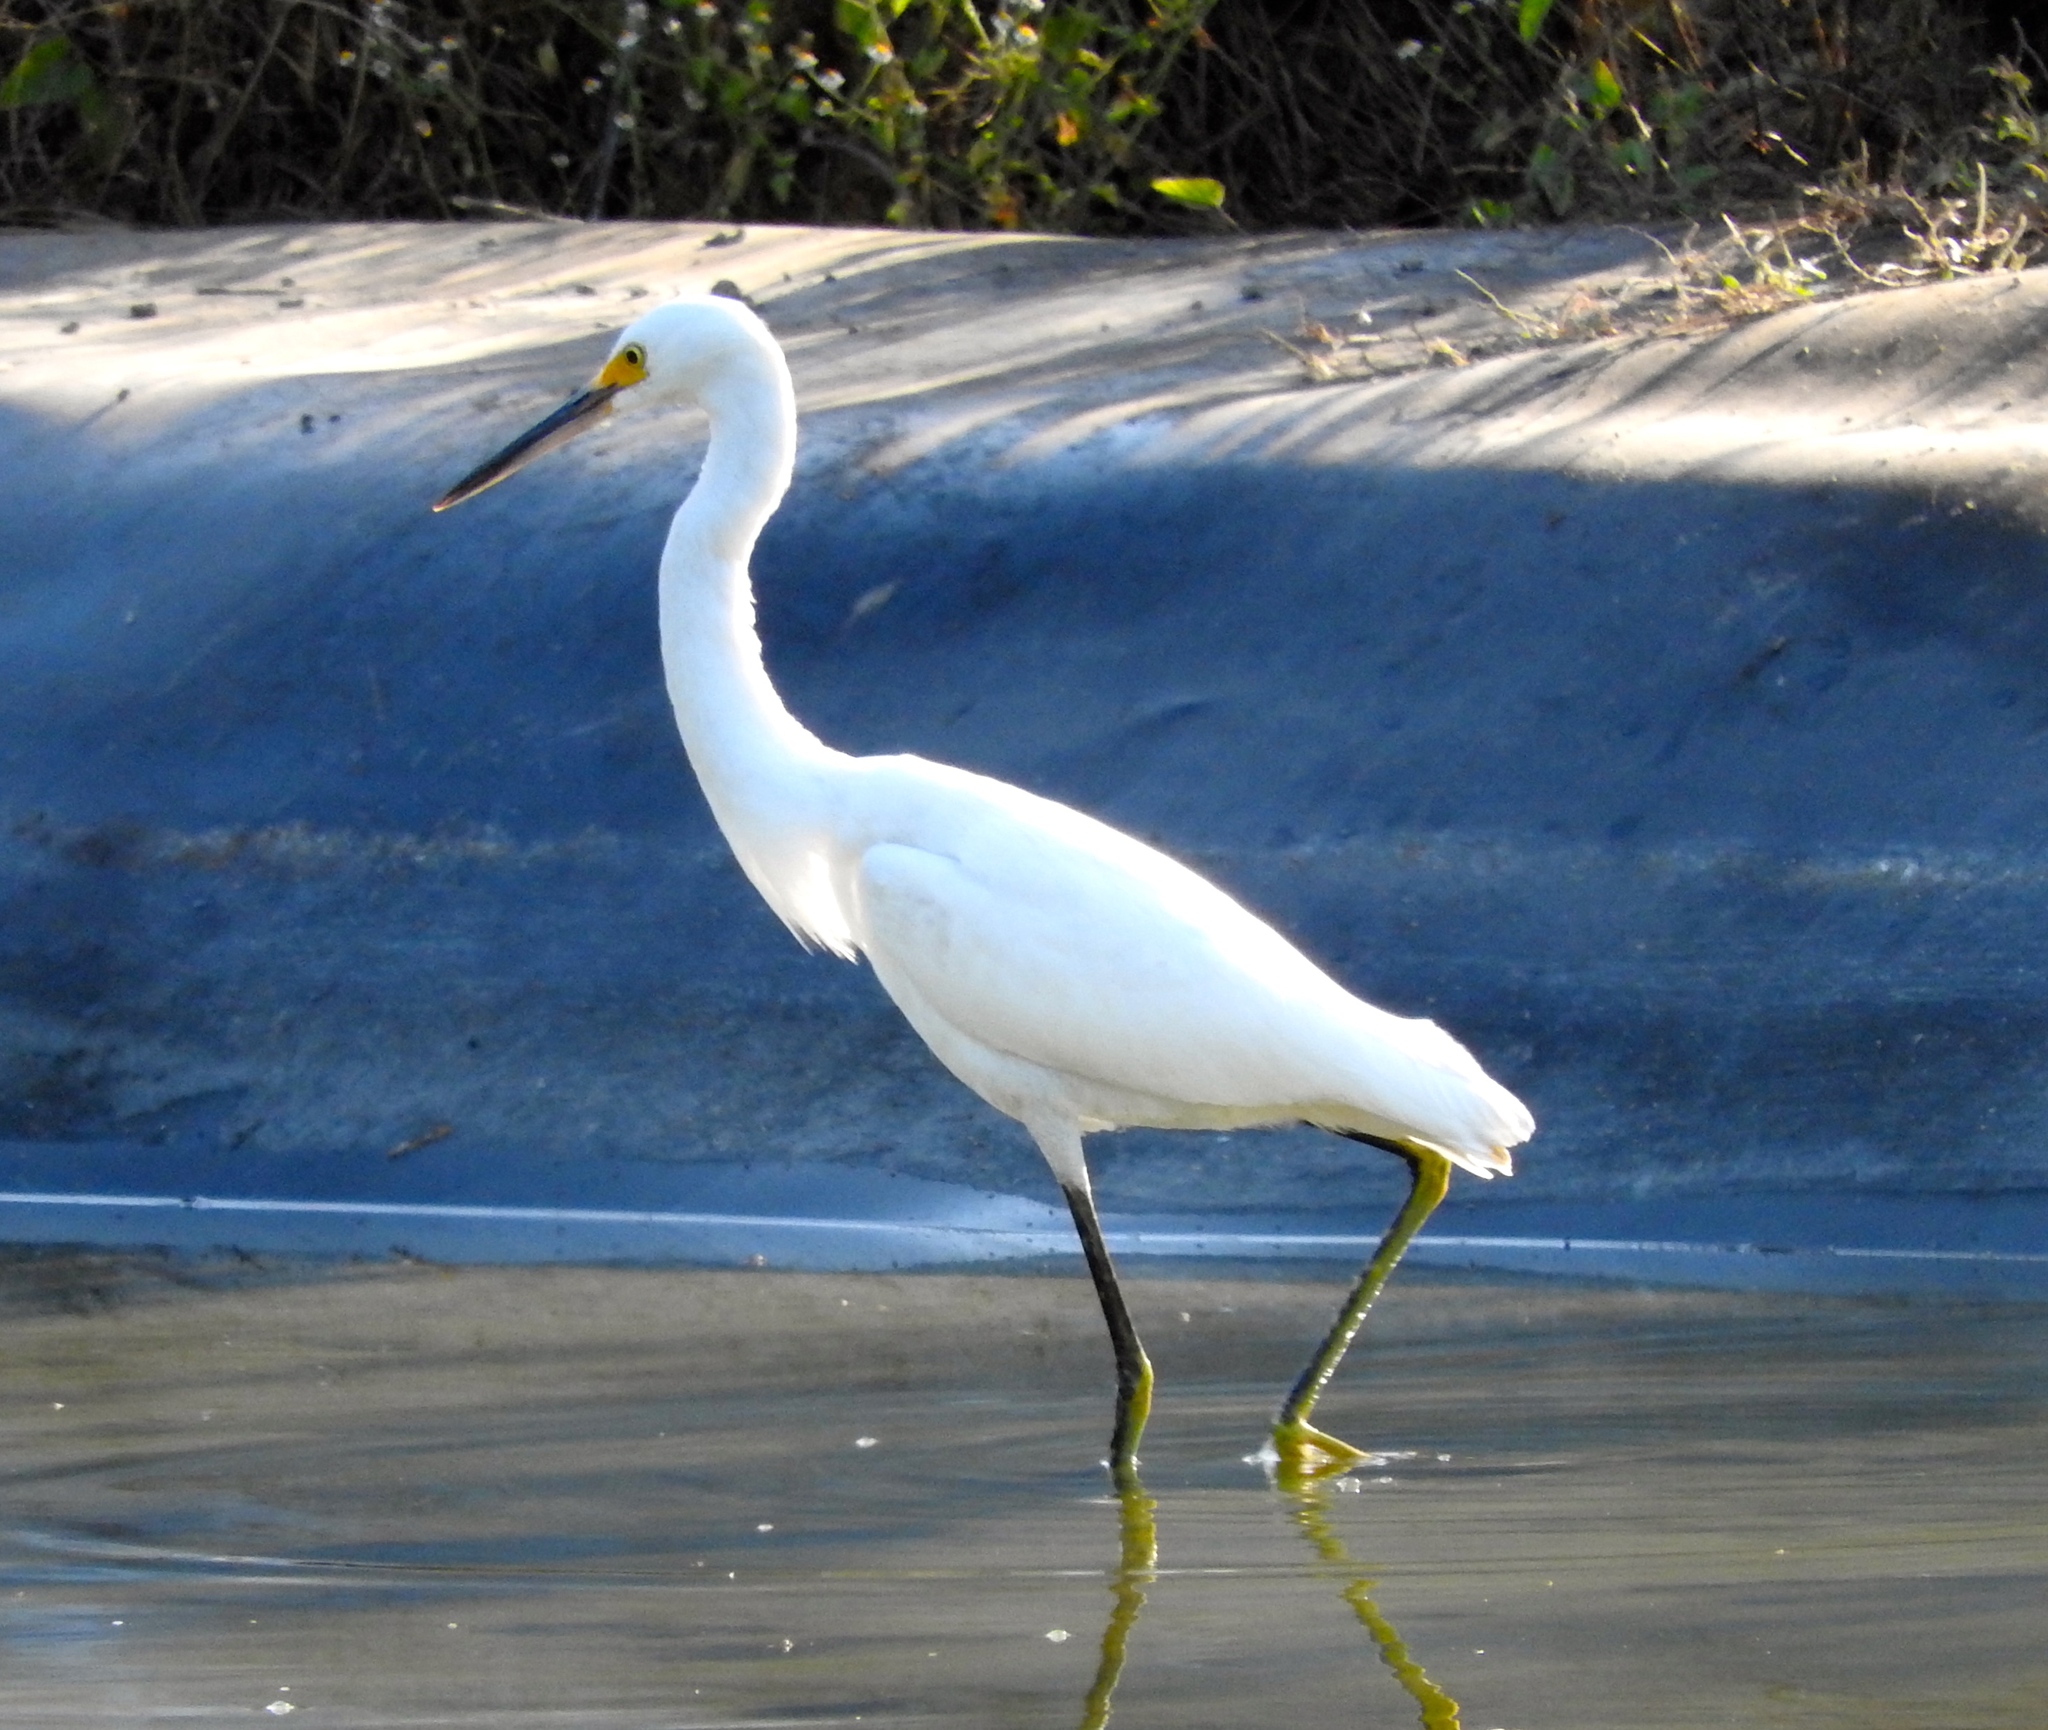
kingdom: Animalia
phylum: Chordata
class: Aves
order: Pelecaniformes
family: Ardeidae
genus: Egretta
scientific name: Egretta thula
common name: Snowy egret
